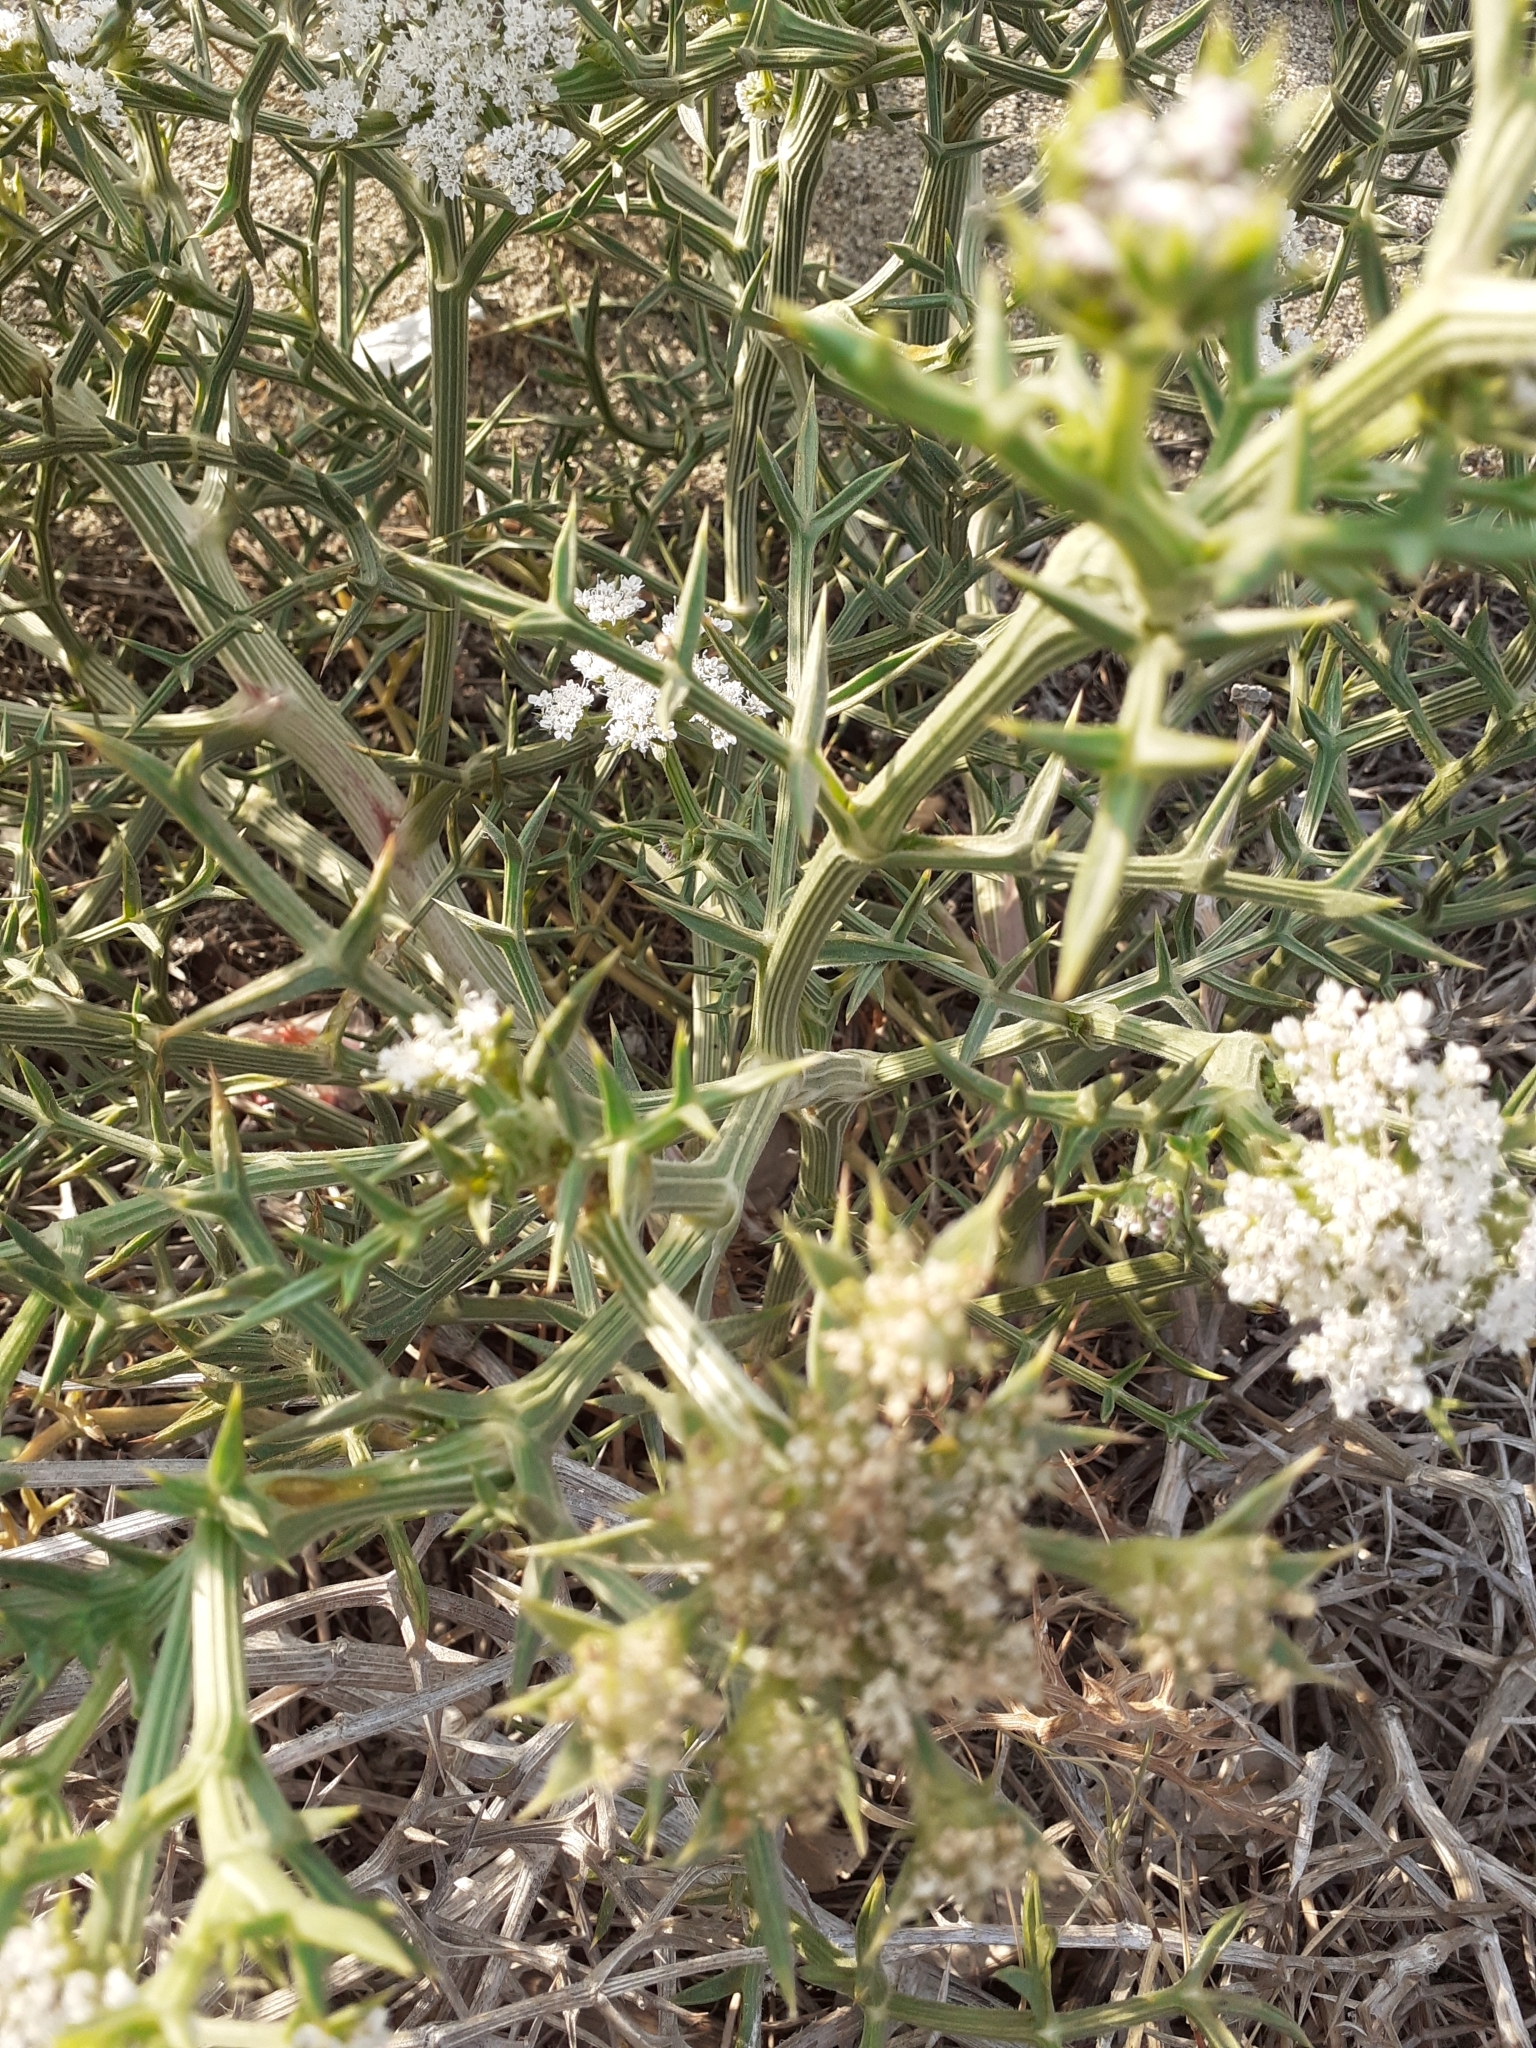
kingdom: Plantae
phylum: Tracheophyta
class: Magnoliopsida
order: Apiales
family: Apiaceae
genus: Echinophora
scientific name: Echinophora spinosa
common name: Prickly samphire
